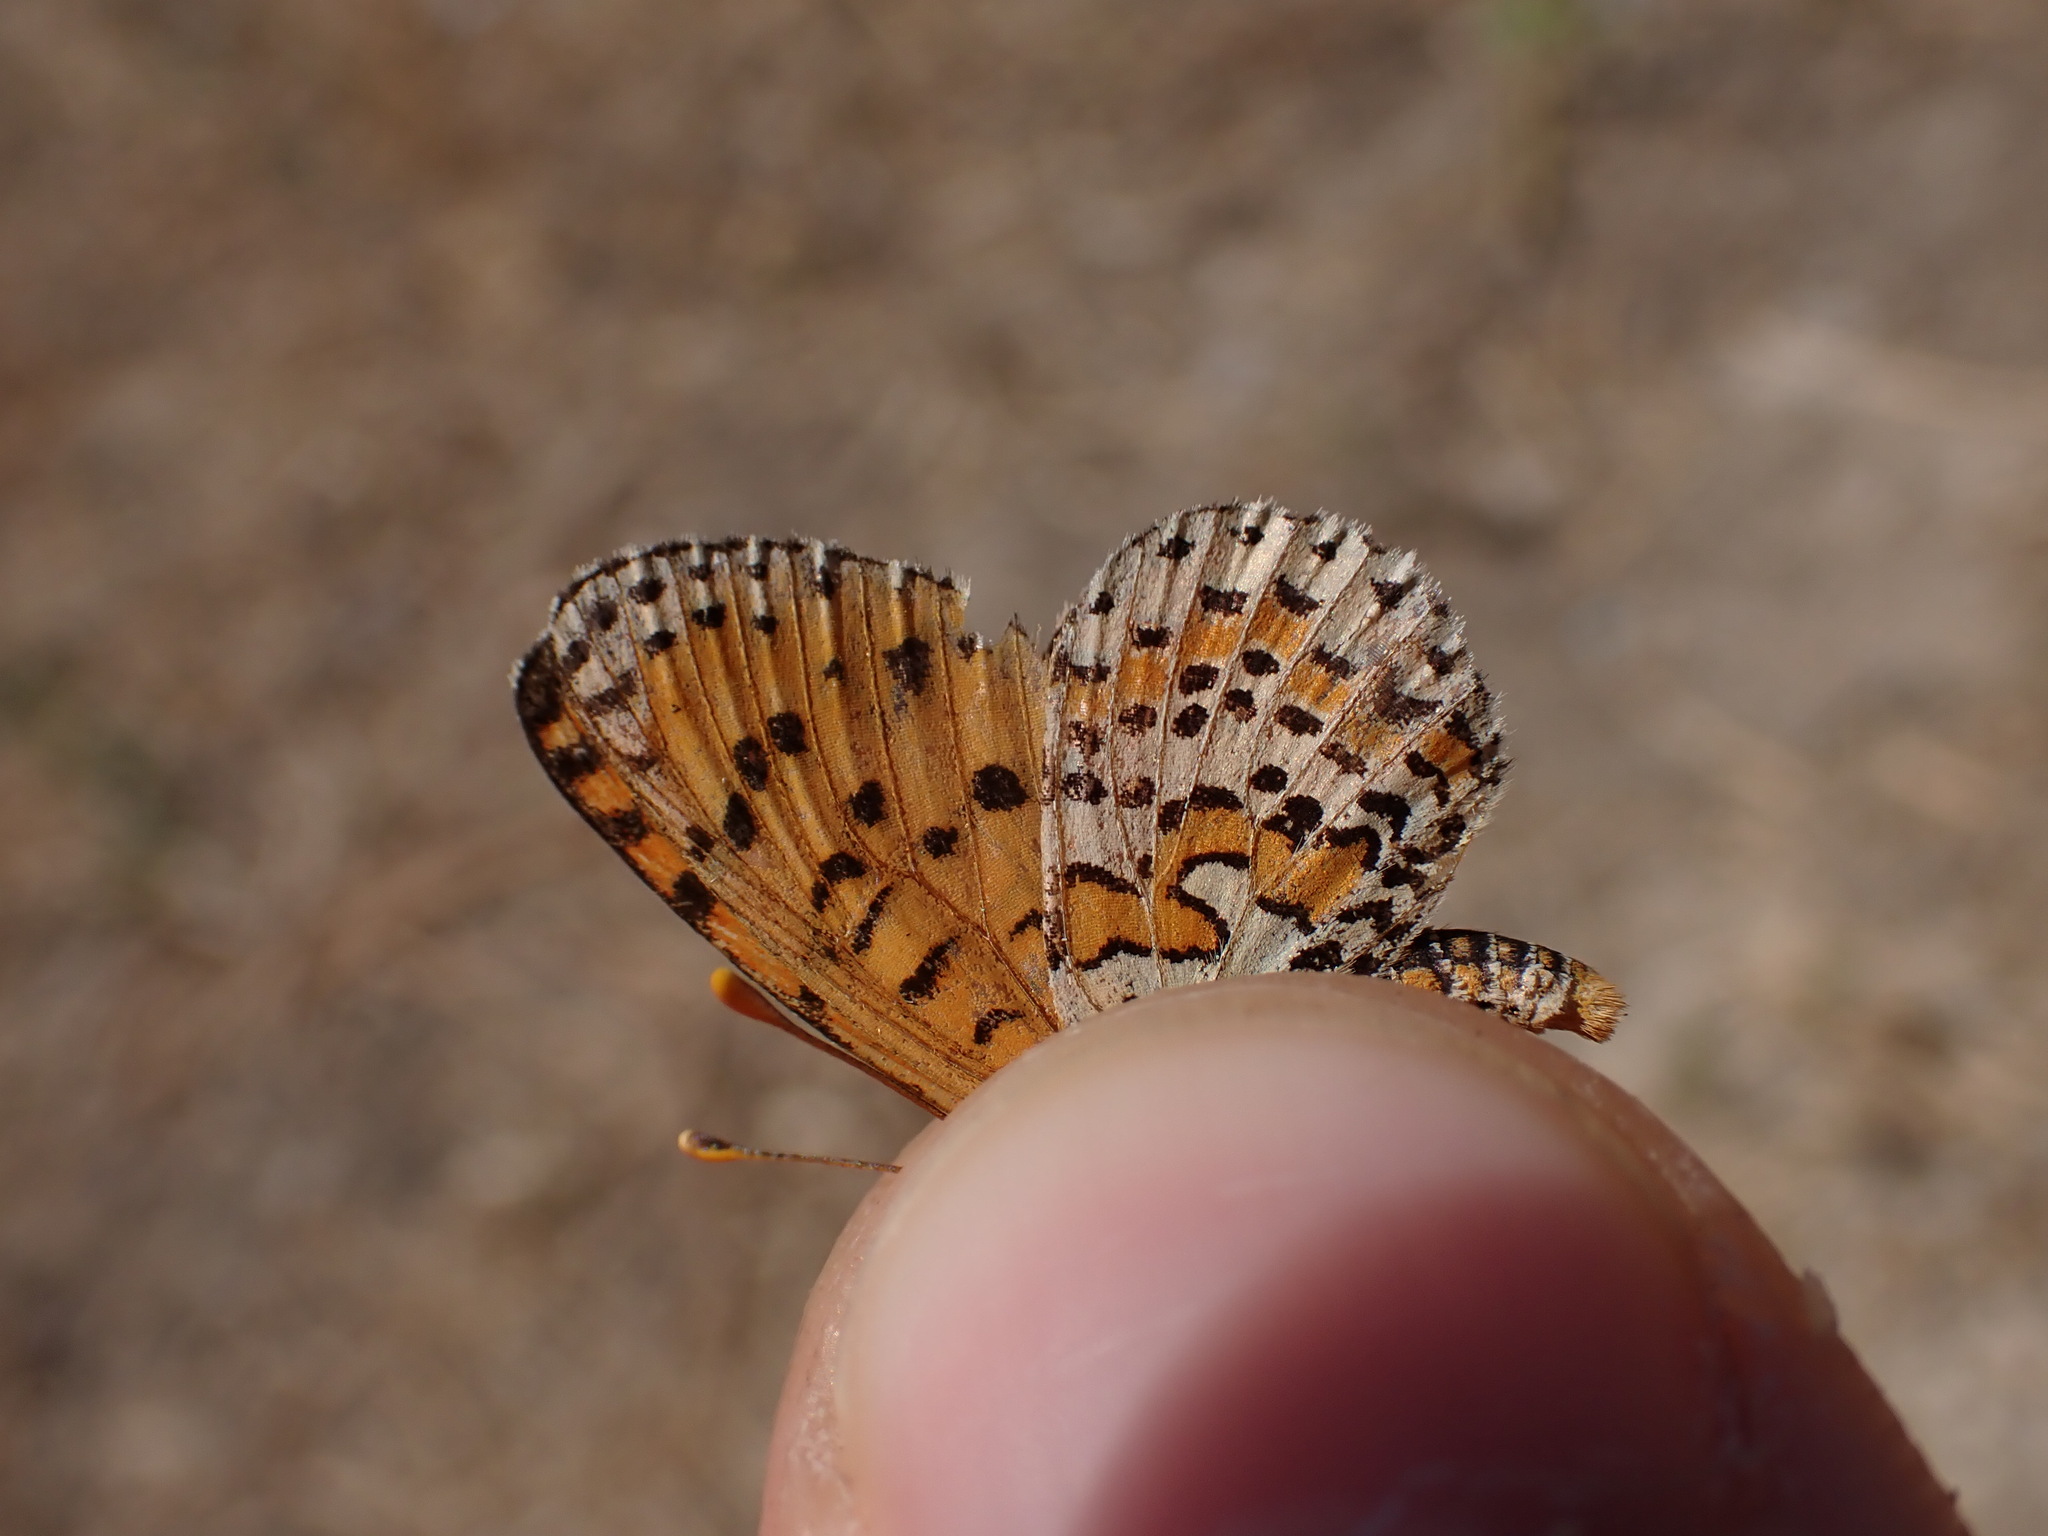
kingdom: Animalia
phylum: Arthropoda
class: Insecta
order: Lepidoptera
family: Nymphalidae
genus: Melitaea
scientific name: Melitaea didyma
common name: Spotted fritillary
